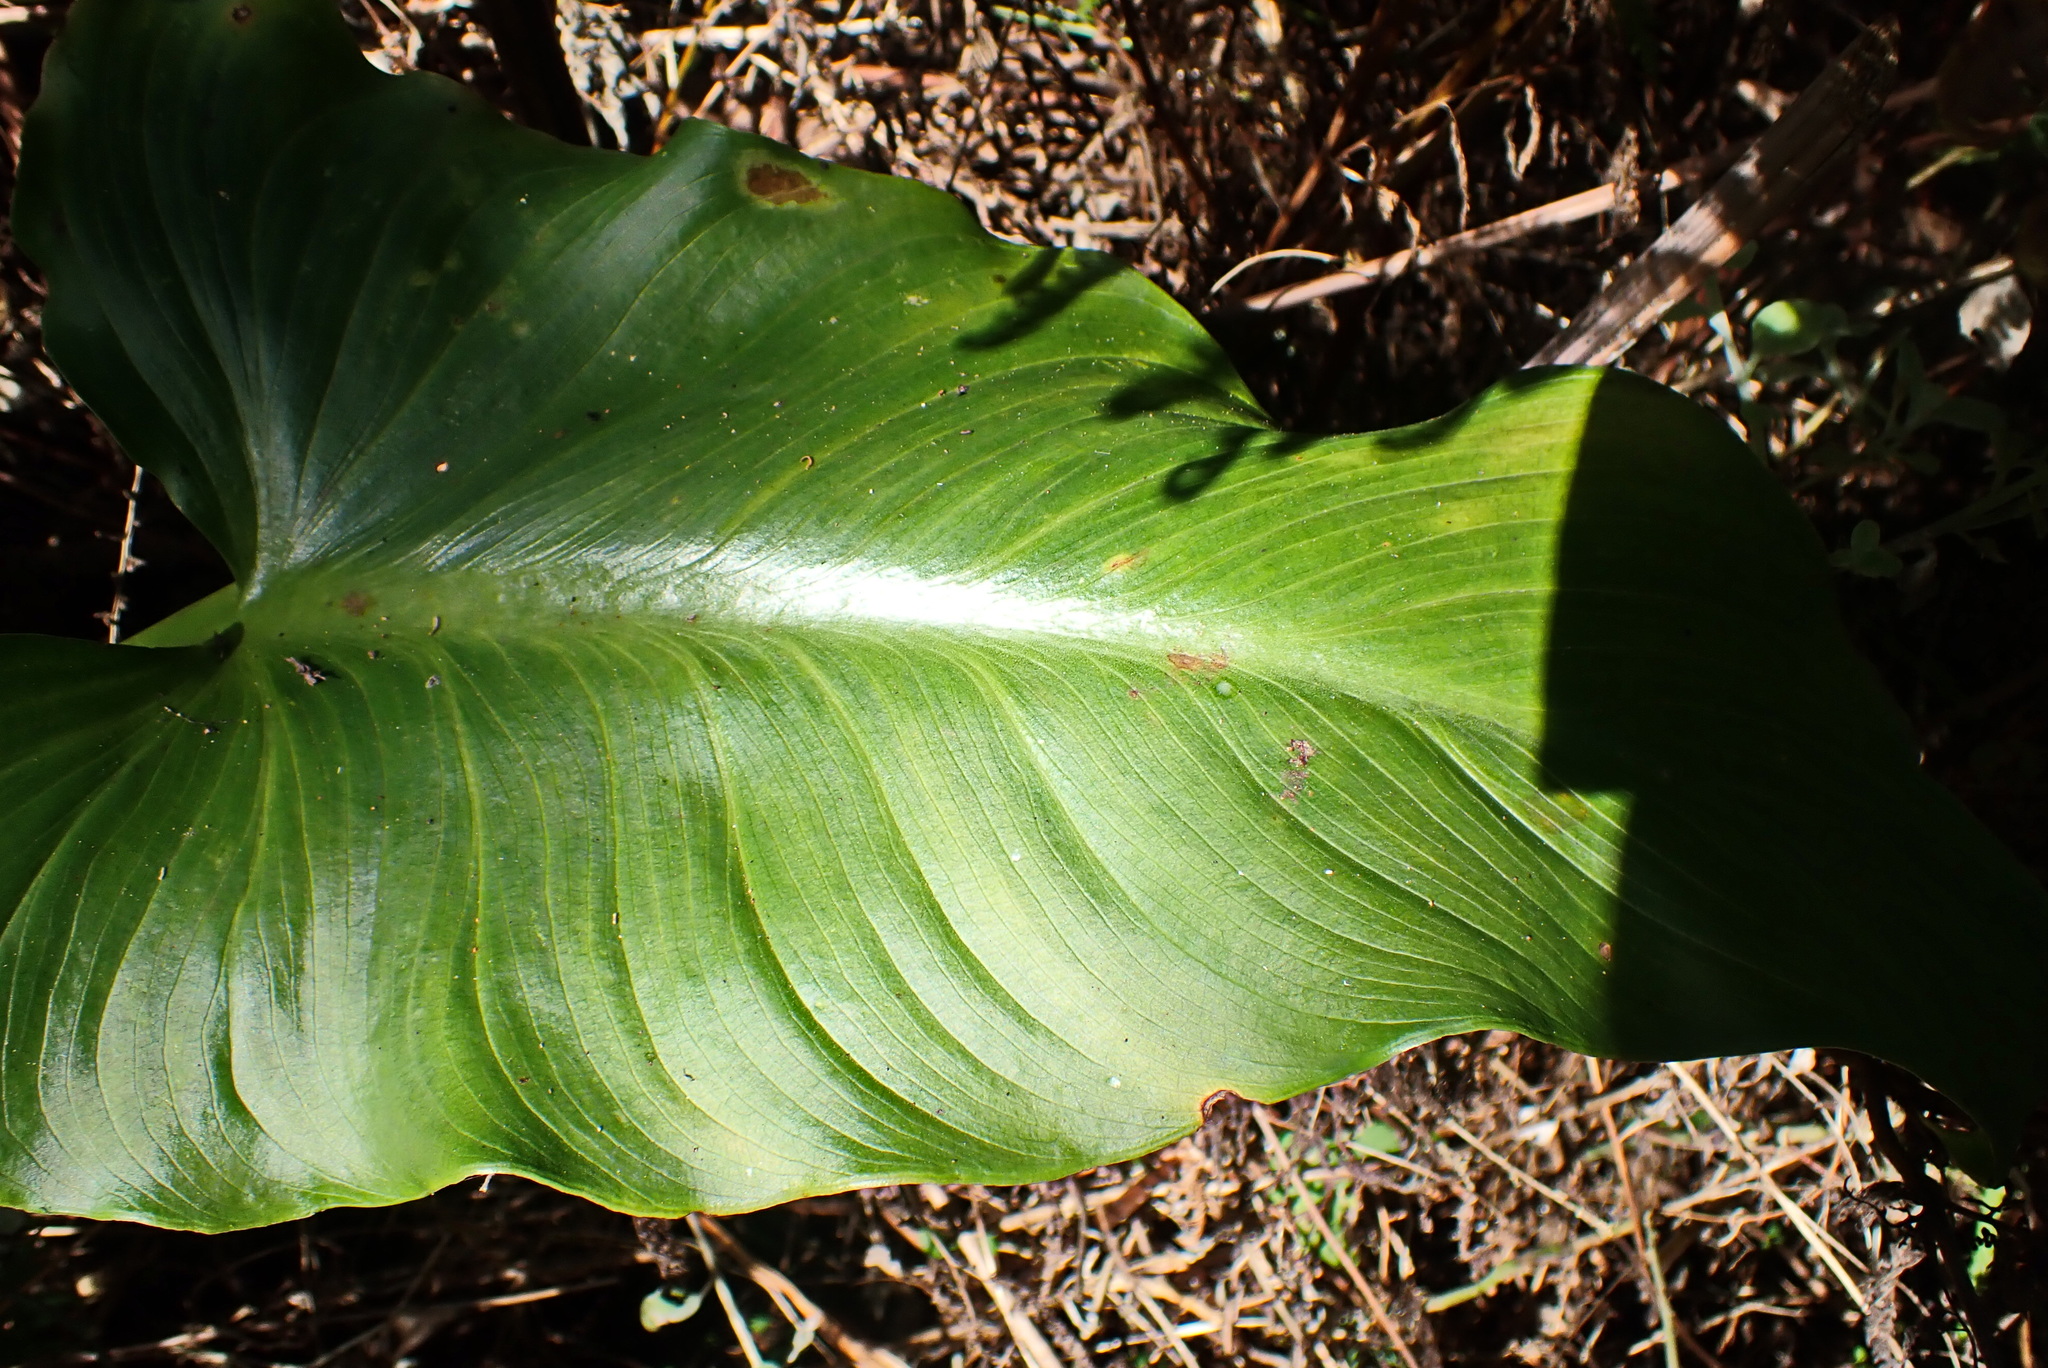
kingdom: Plantae
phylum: Tracheophyta
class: Liliopsida
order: Alismatales
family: Araceae
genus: Zantedeschia
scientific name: Zantedeschia aethiopica
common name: Altar-lily
